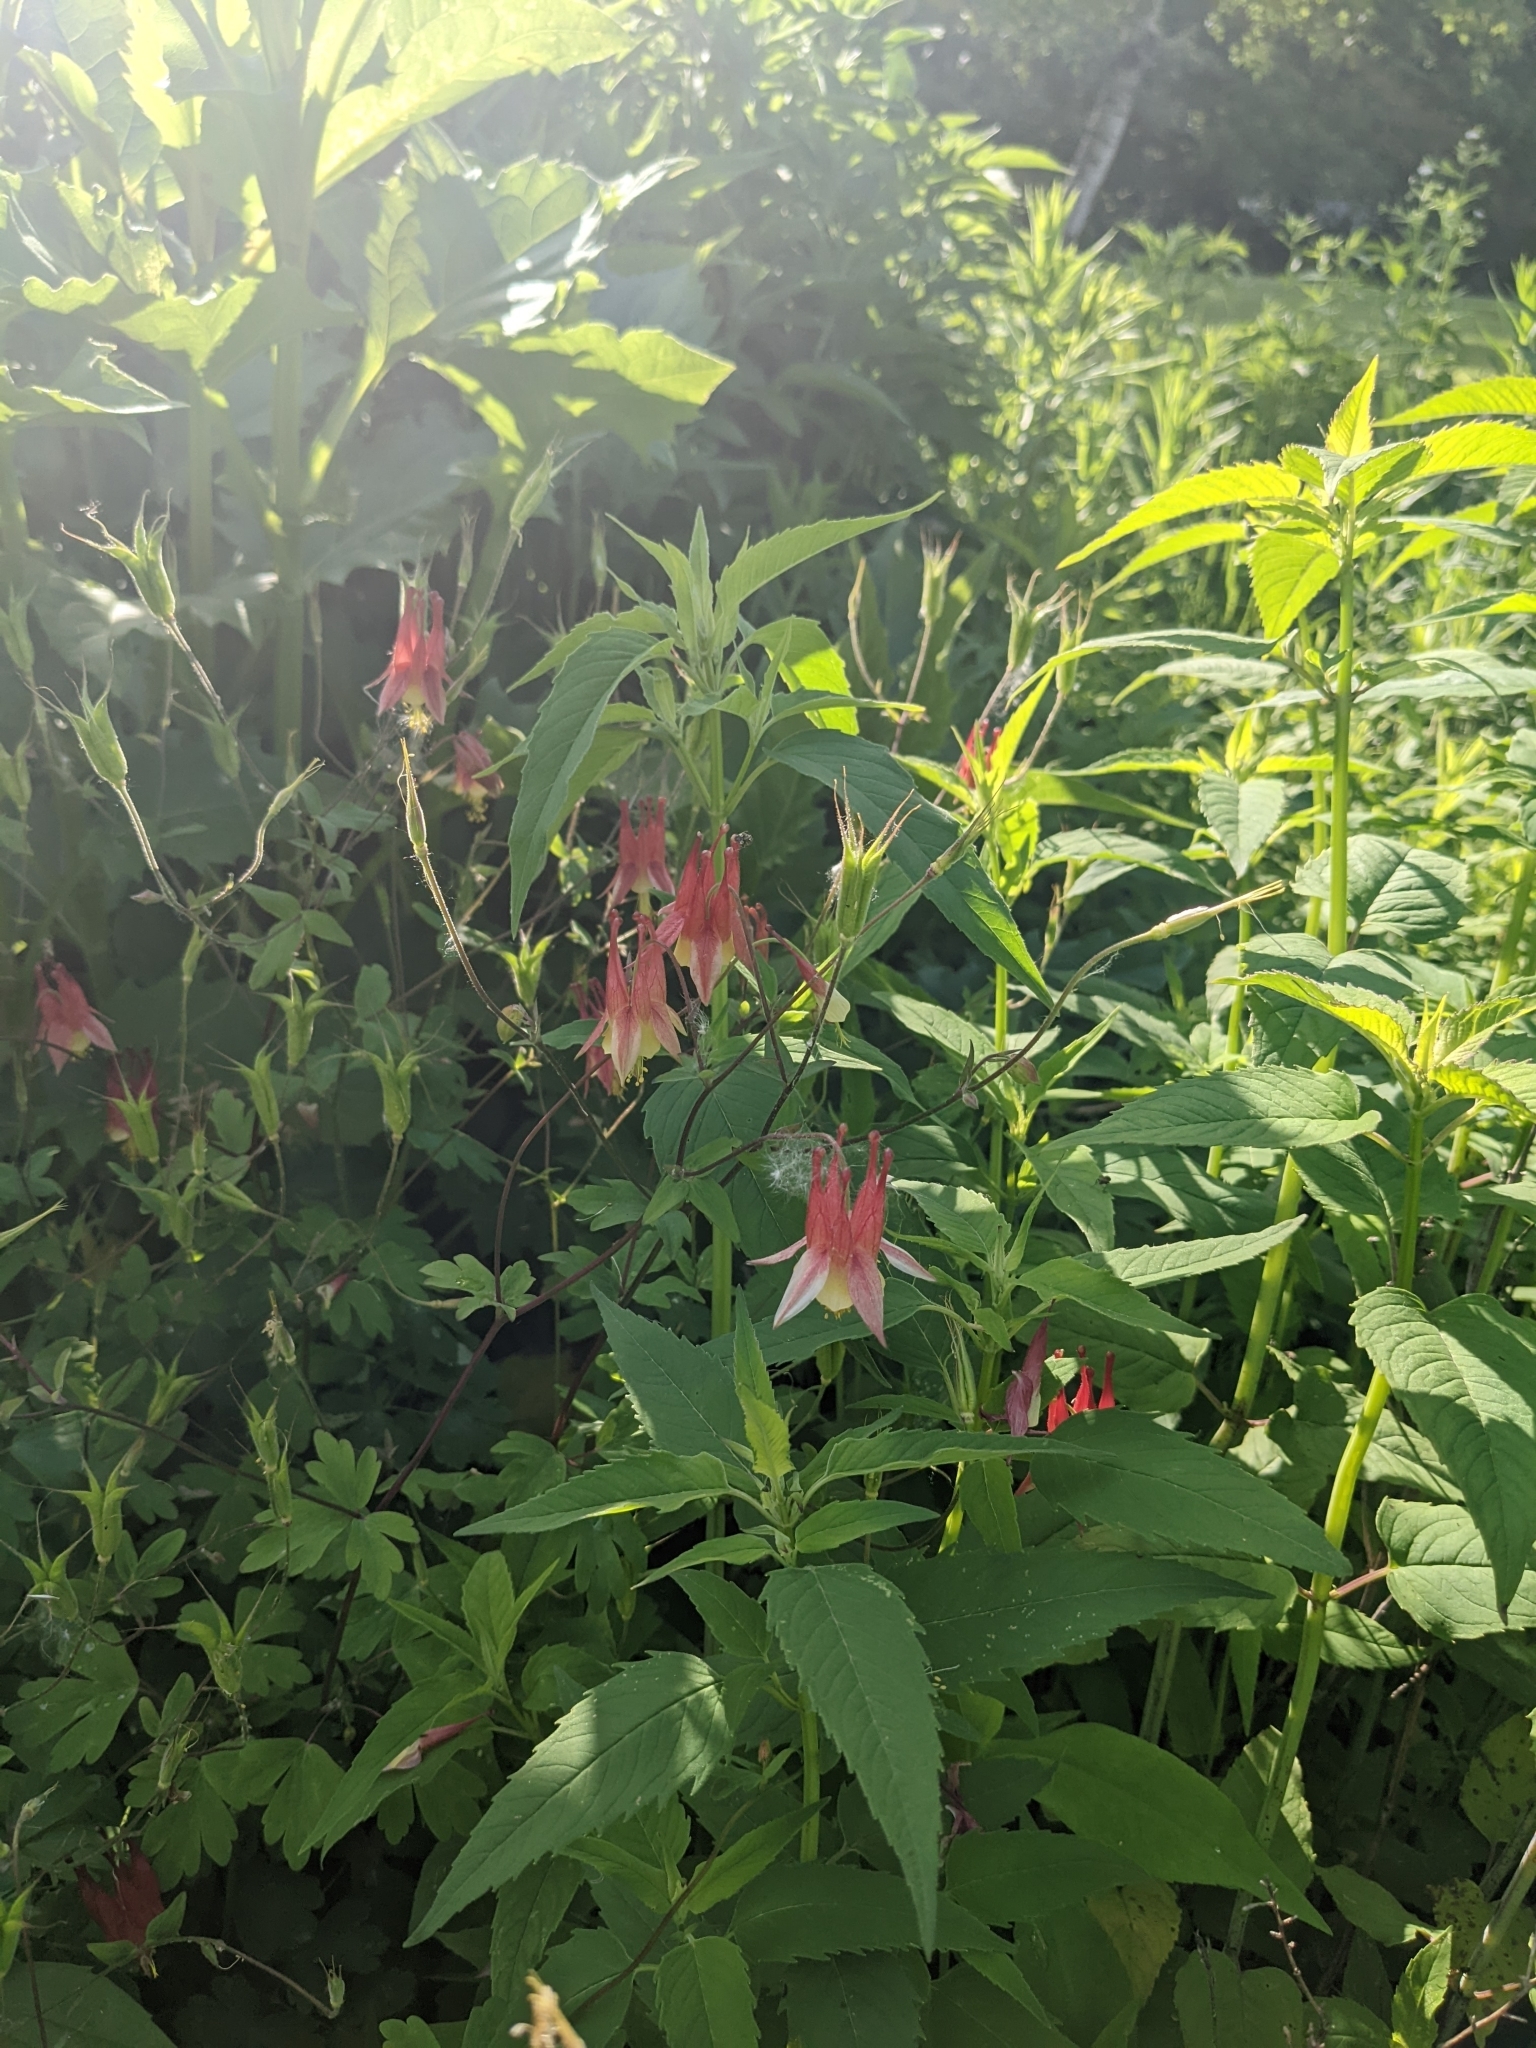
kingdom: Plantae
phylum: Tracheophyta
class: Magnoliopsida
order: Ranunculales
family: Ranunculaceae
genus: Aquilegia
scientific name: Aquilegia canadensis
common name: American columbine
